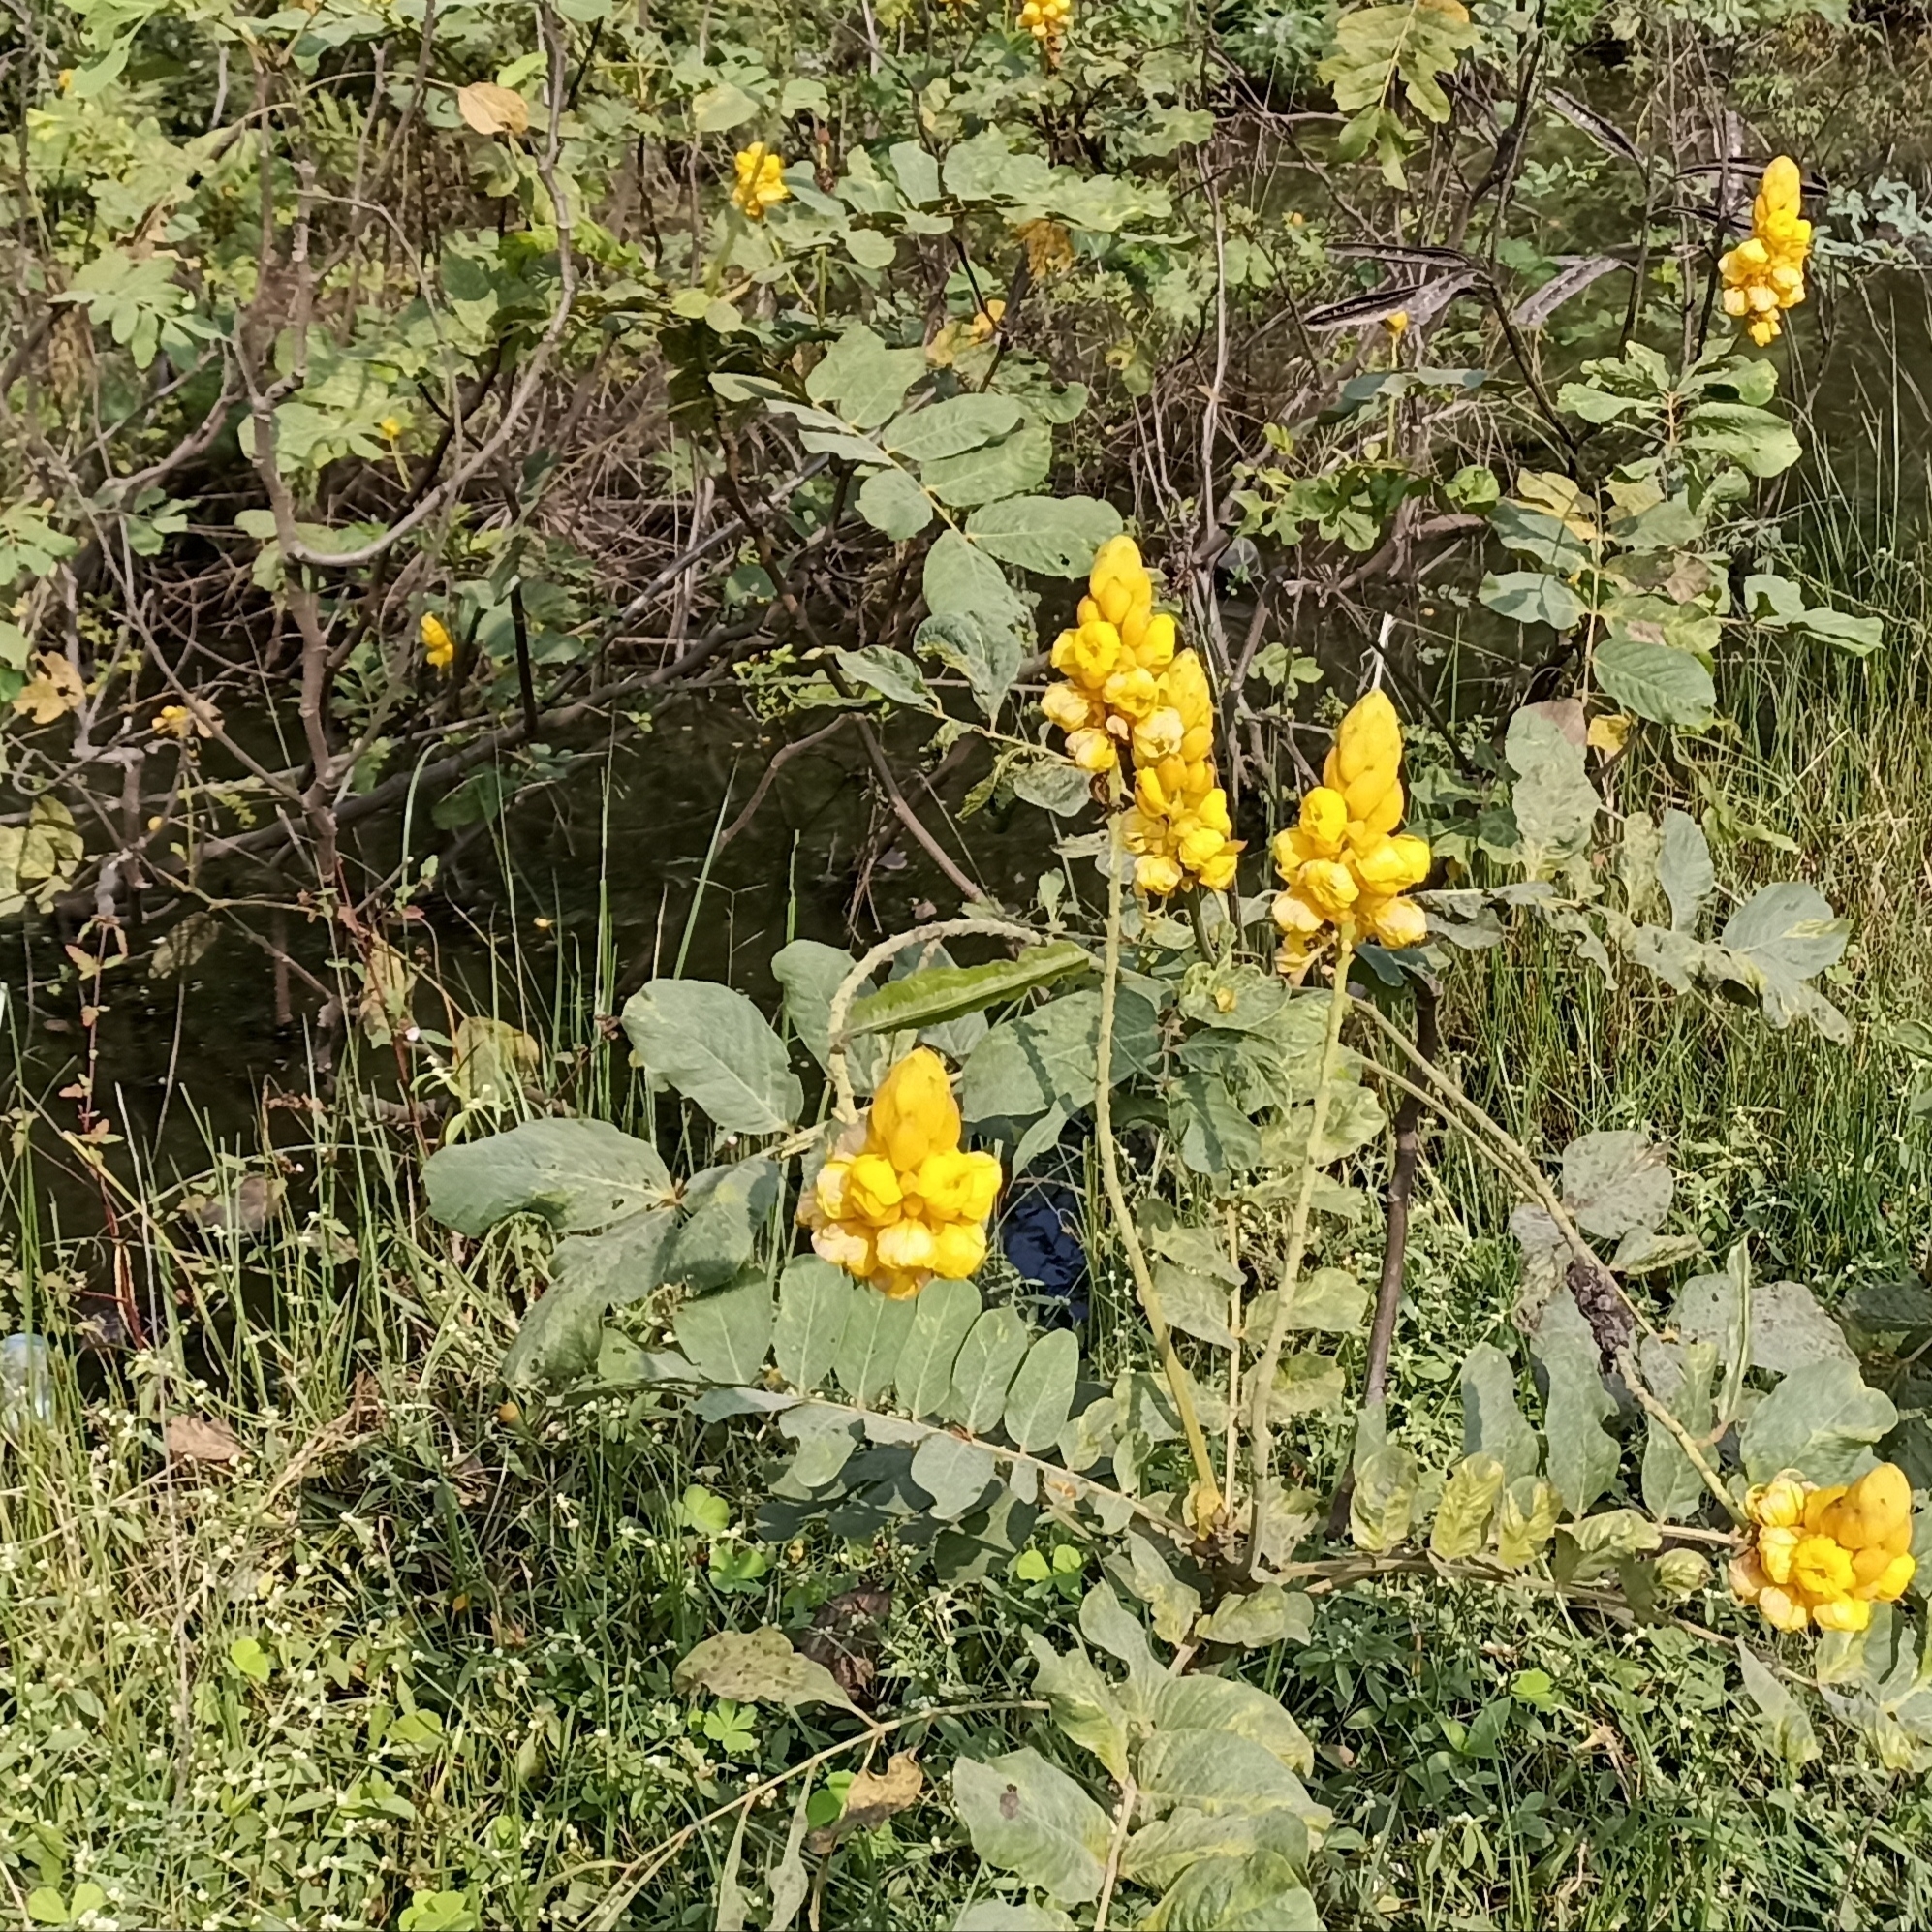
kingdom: Plantae
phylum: Tracheophyta
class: Magnoliopsida
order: Fabales
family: Fabaceae
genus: Senna
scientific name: Senna alata
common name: Emperor's candlesticks
